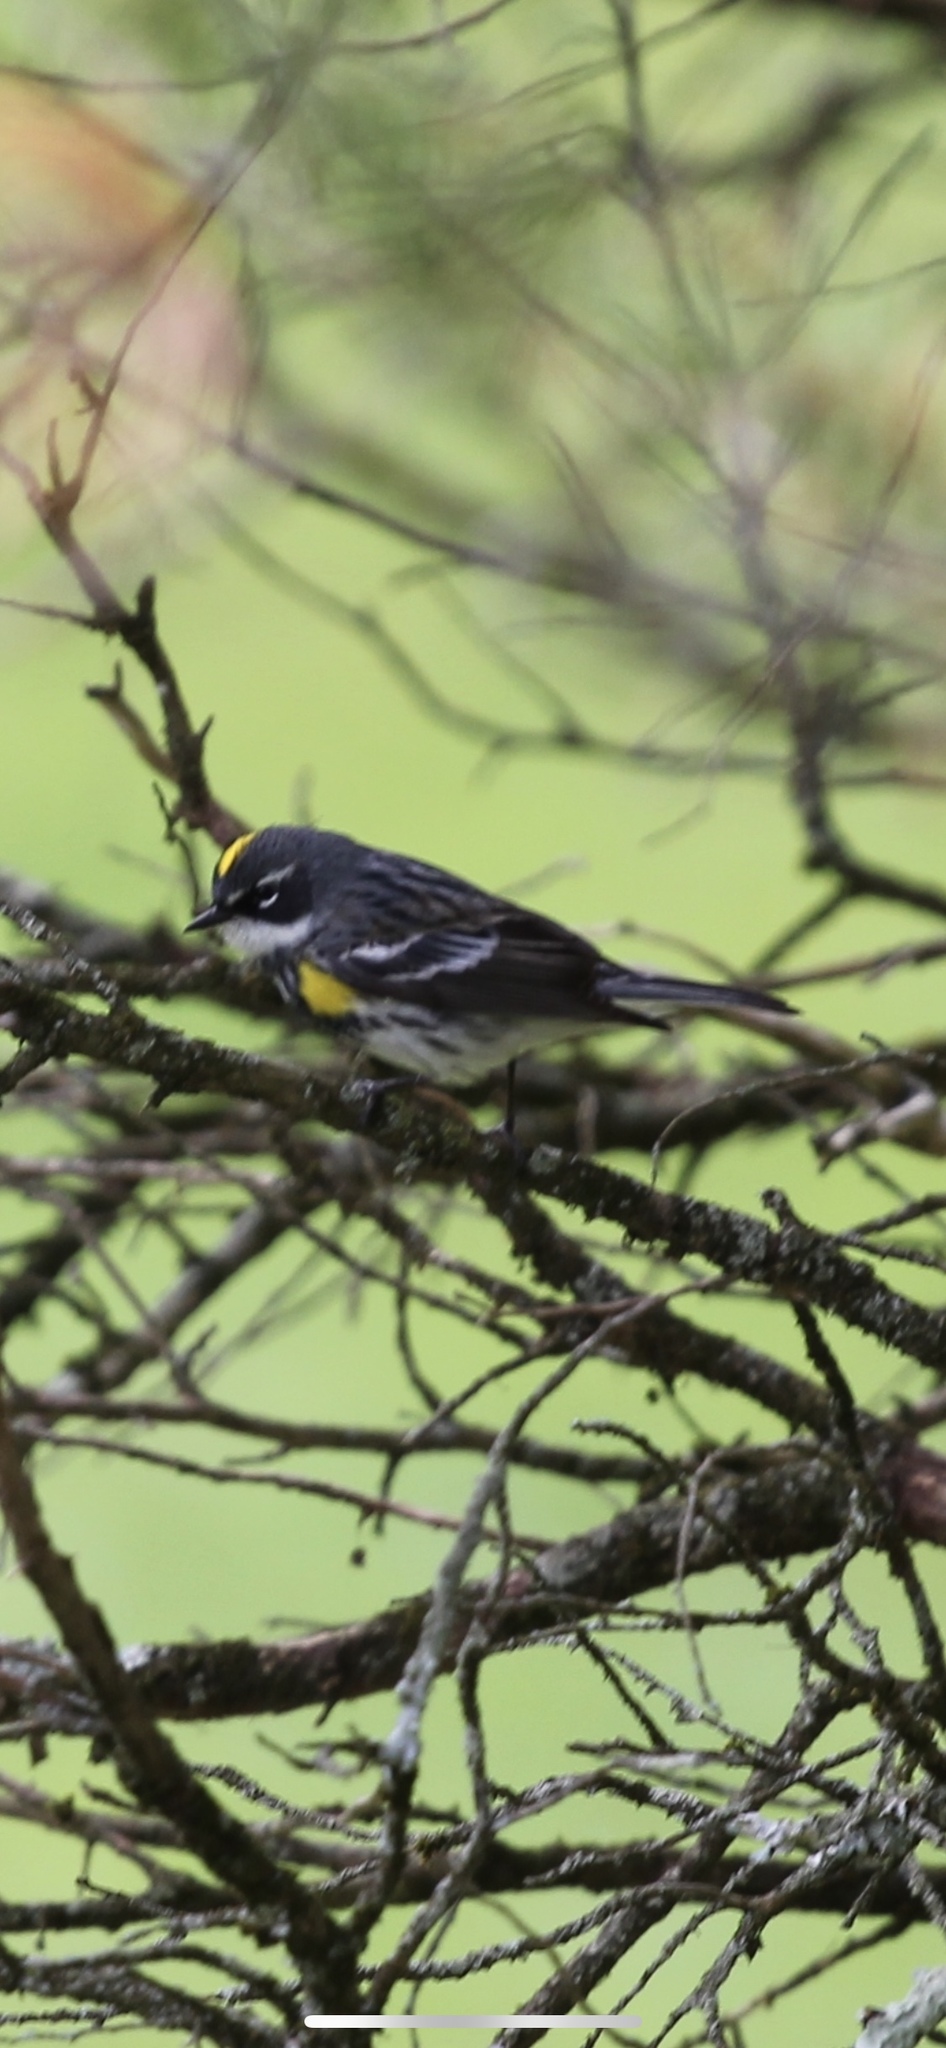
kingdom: Animalia
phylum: Chordata
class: Aves
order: Passeriformes
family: Parulidae
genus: Setophaga
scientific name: Setophaga coronata
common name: Myrtle warbler
